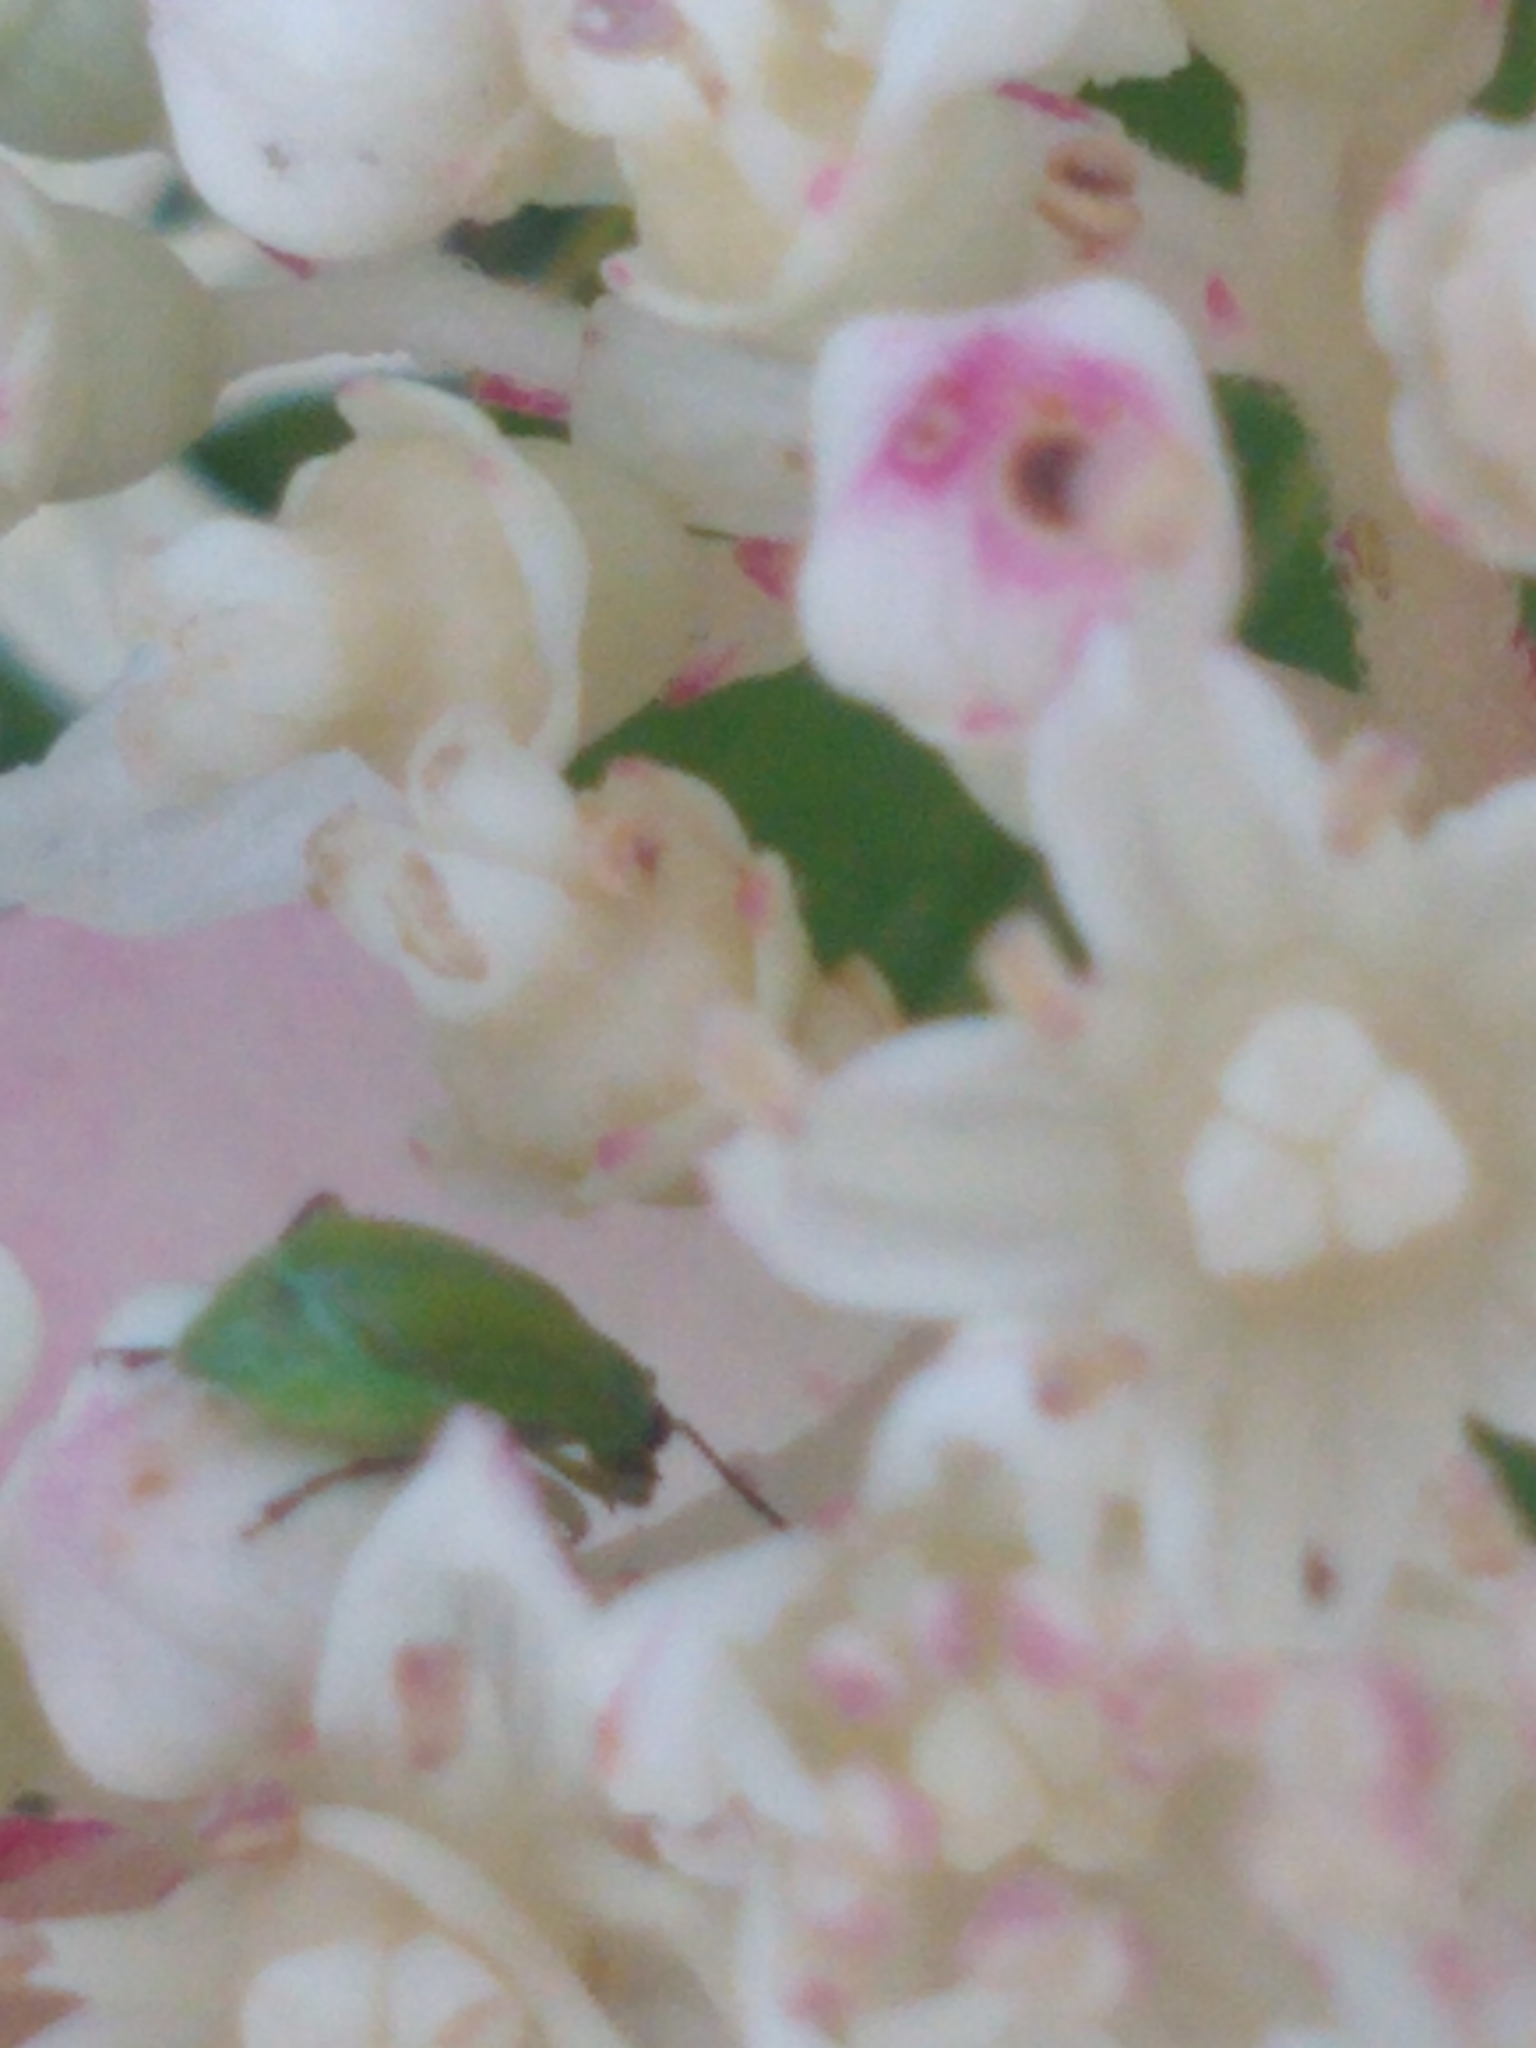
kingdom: Animalia
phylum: Arthropoda
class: Insecta
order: Coleoptera
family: Chrysomelidae
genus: Diabrotica
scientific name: Diabrotica barberi
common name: Northern corn rootworm
